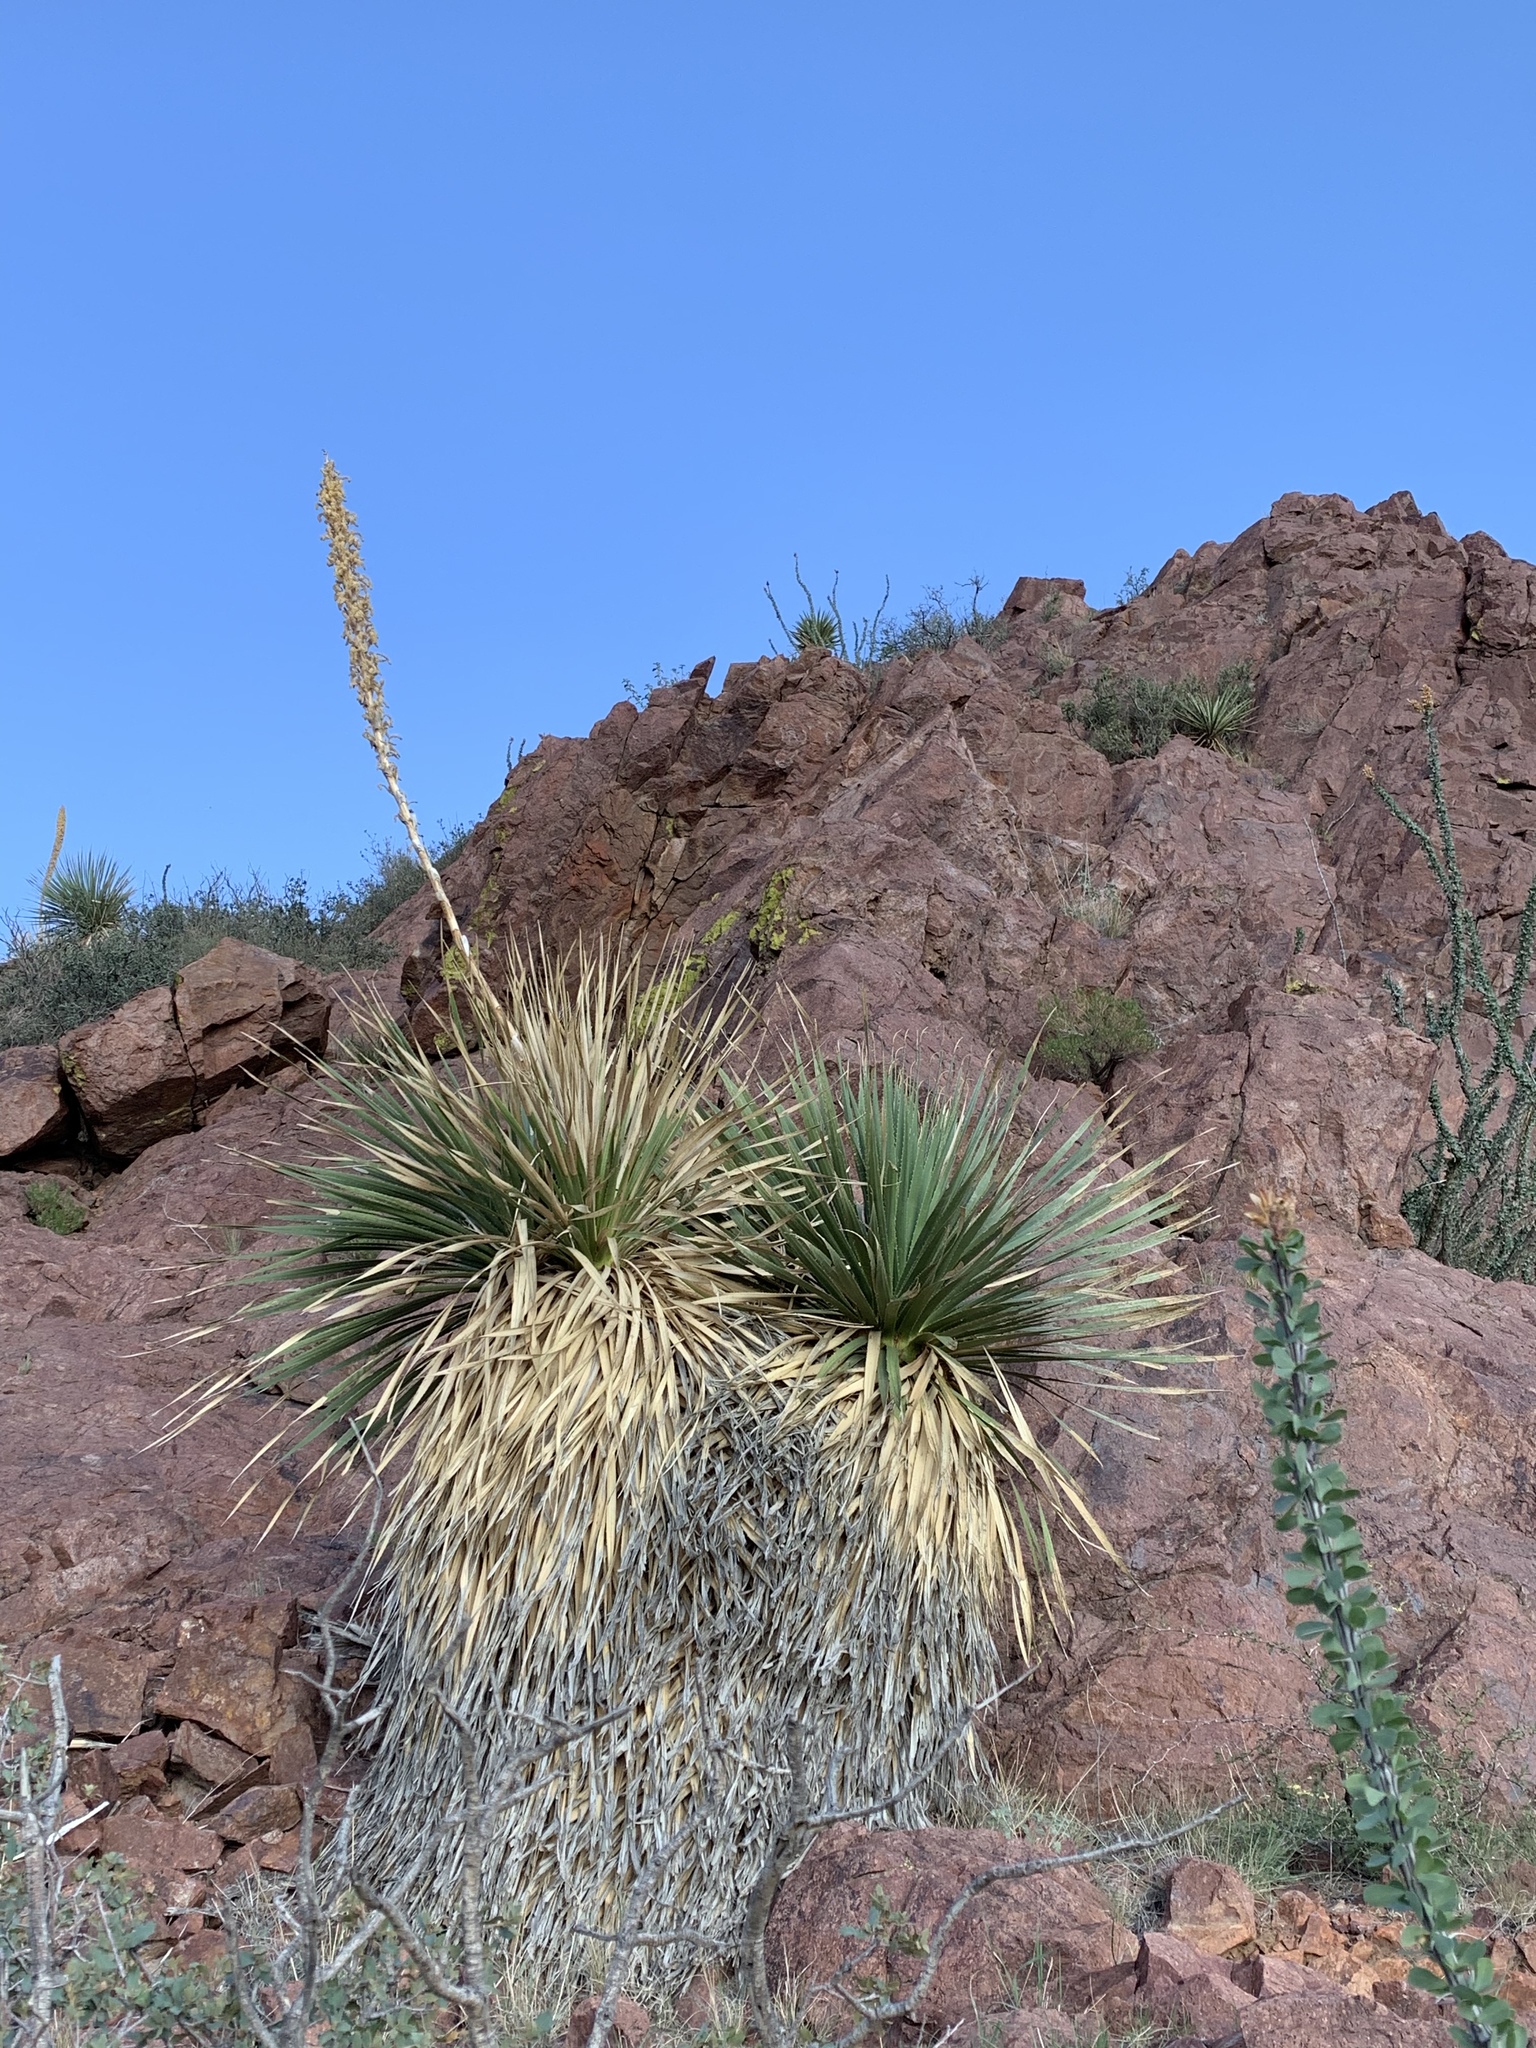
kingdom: Plantae
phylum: Tracheophyta
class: Liliopsida
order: Asparagales
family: Asparagaceae
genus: Dasylirion
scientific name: Dasylirion wheeleri
